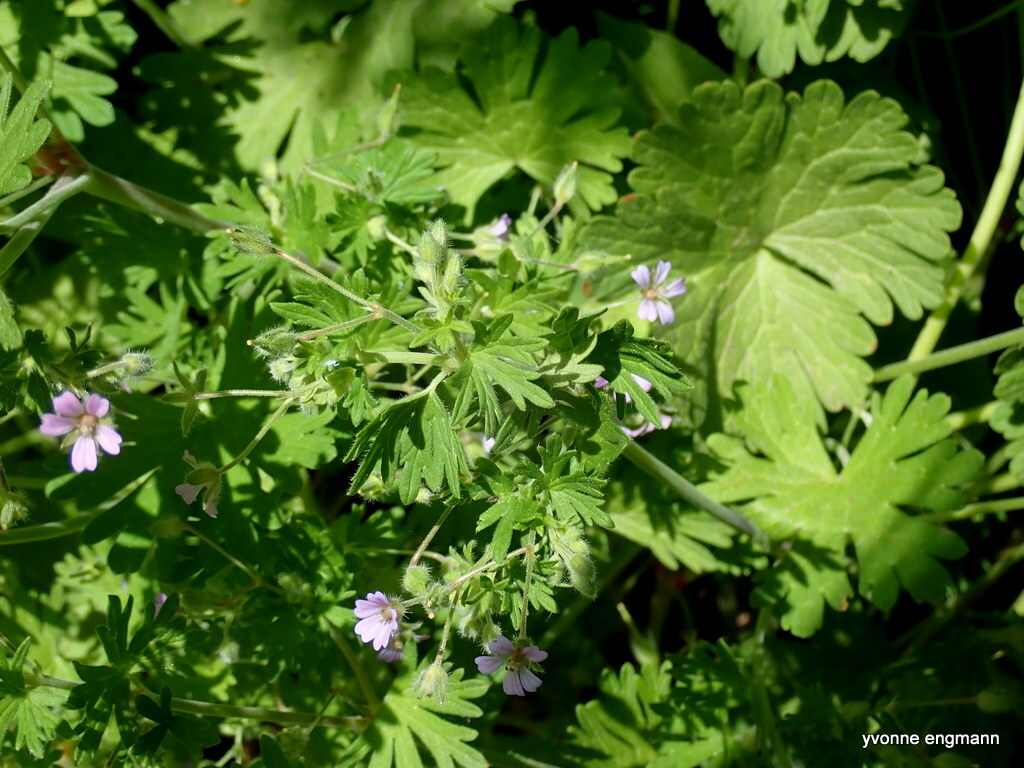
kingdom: Plantae
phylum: Tracheophyta
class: Magnoliopsida
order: Geraniales
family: Geraniaceae
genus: Geranium
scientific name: Geranium pusillum
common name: Small geranium
